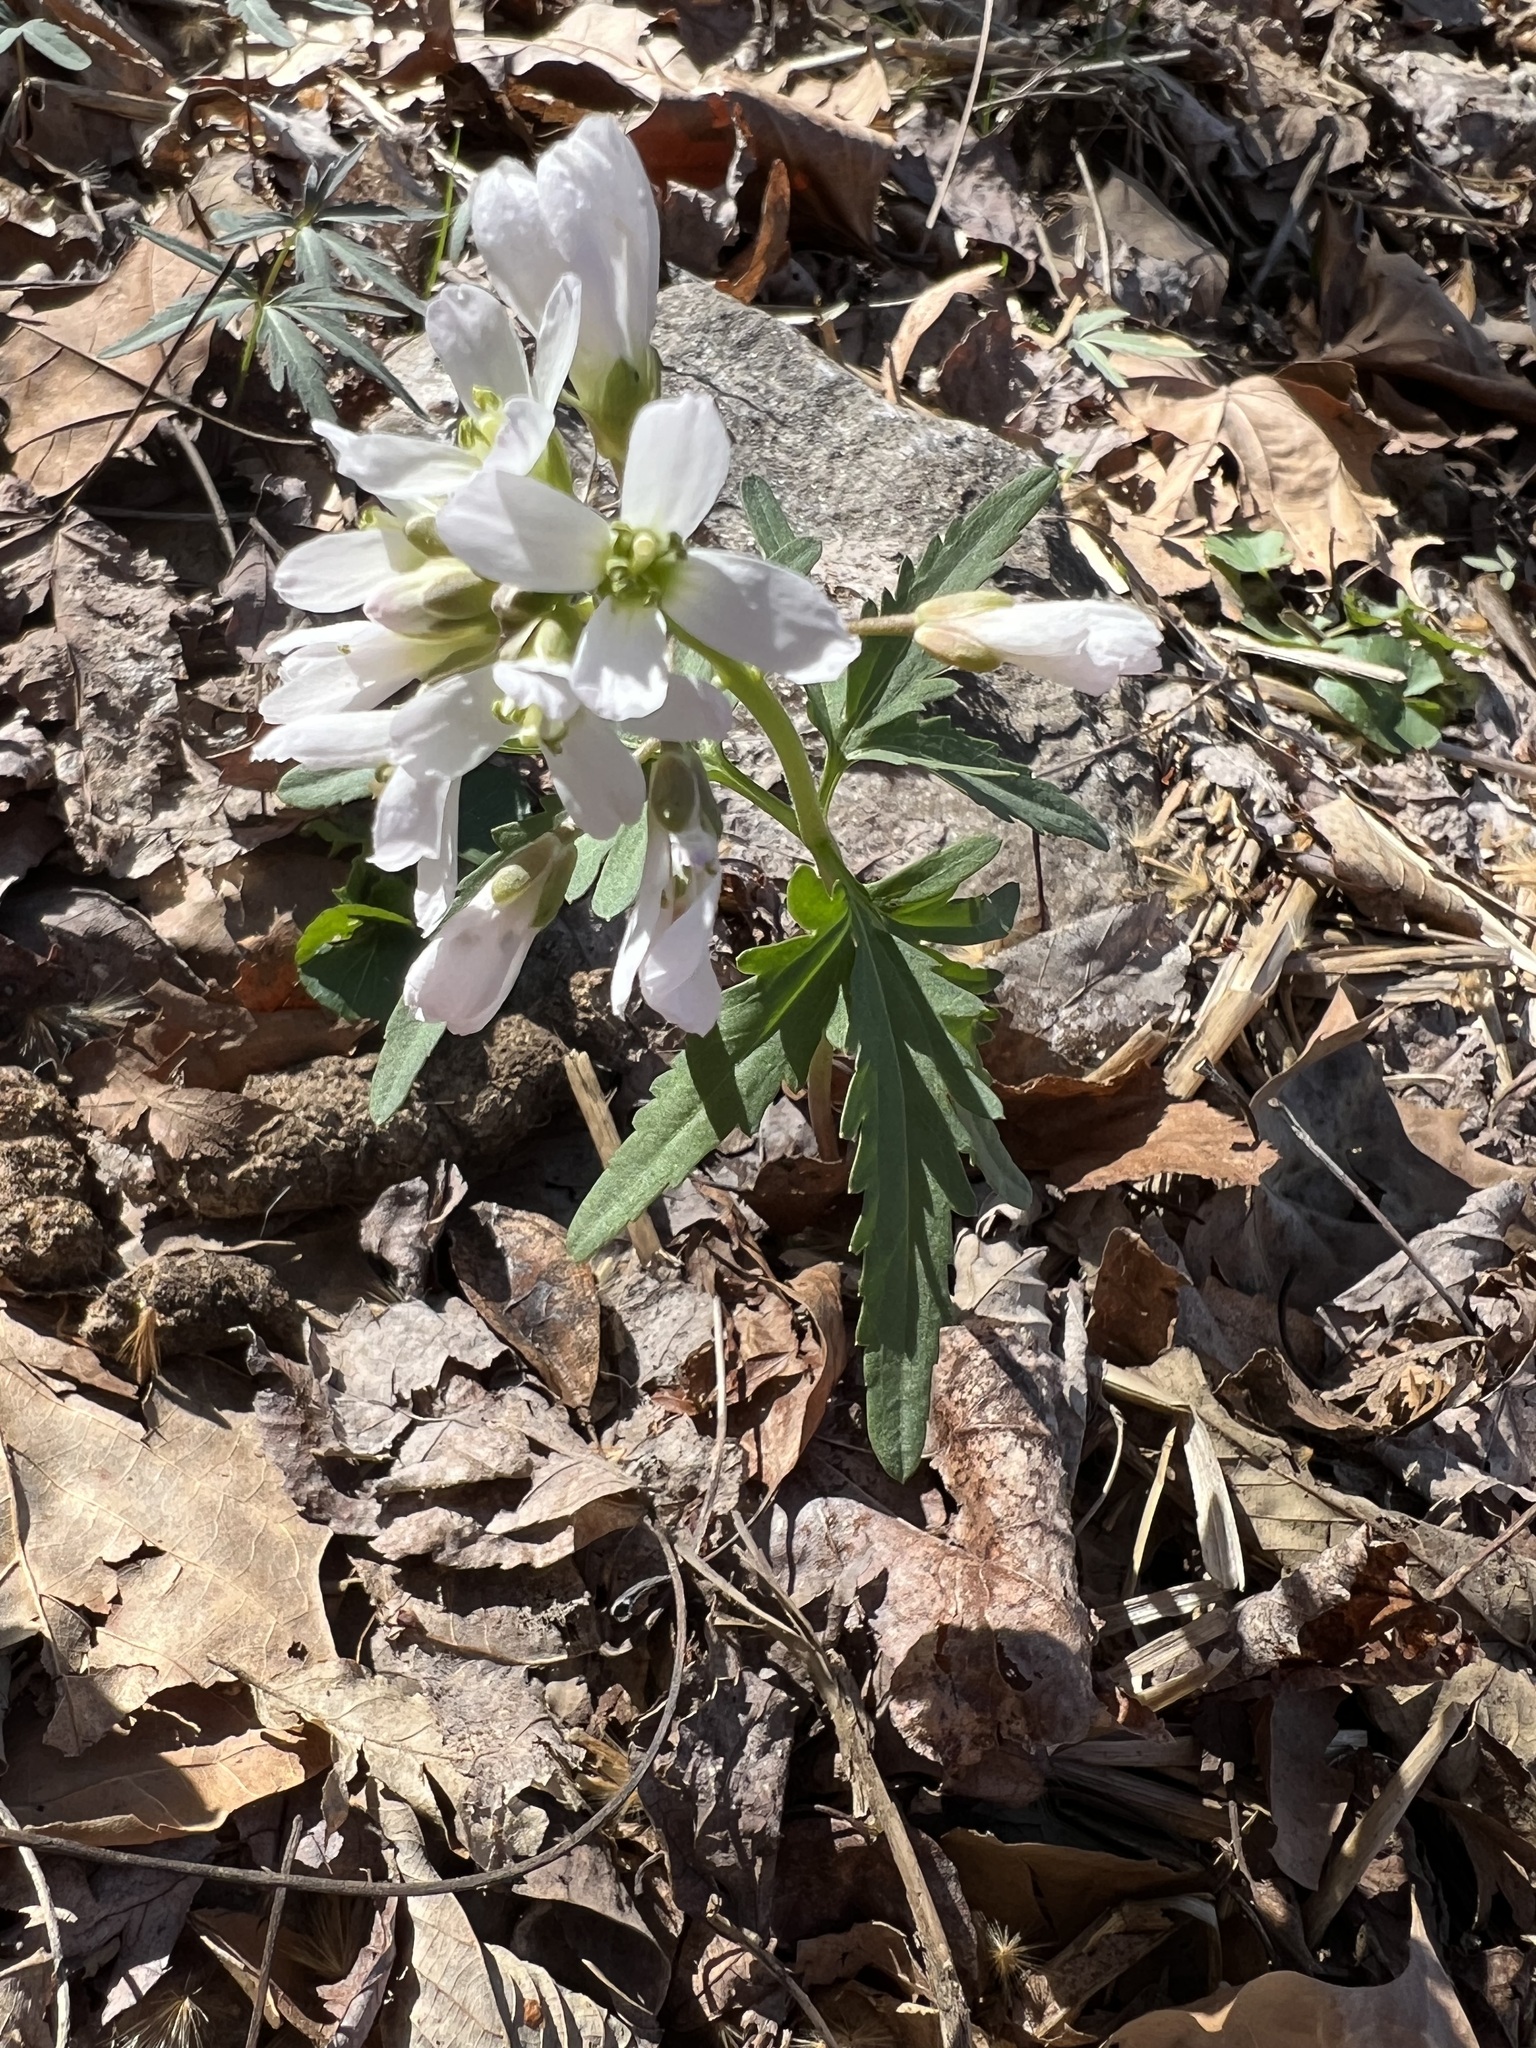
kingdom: Plantae
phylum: Tracheophyta
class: Magnoliopsida
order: Brassicales
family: Brassicaceae
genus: Cardamine
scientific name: Cardamine concatenata
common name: Cut-leaf toothcup
